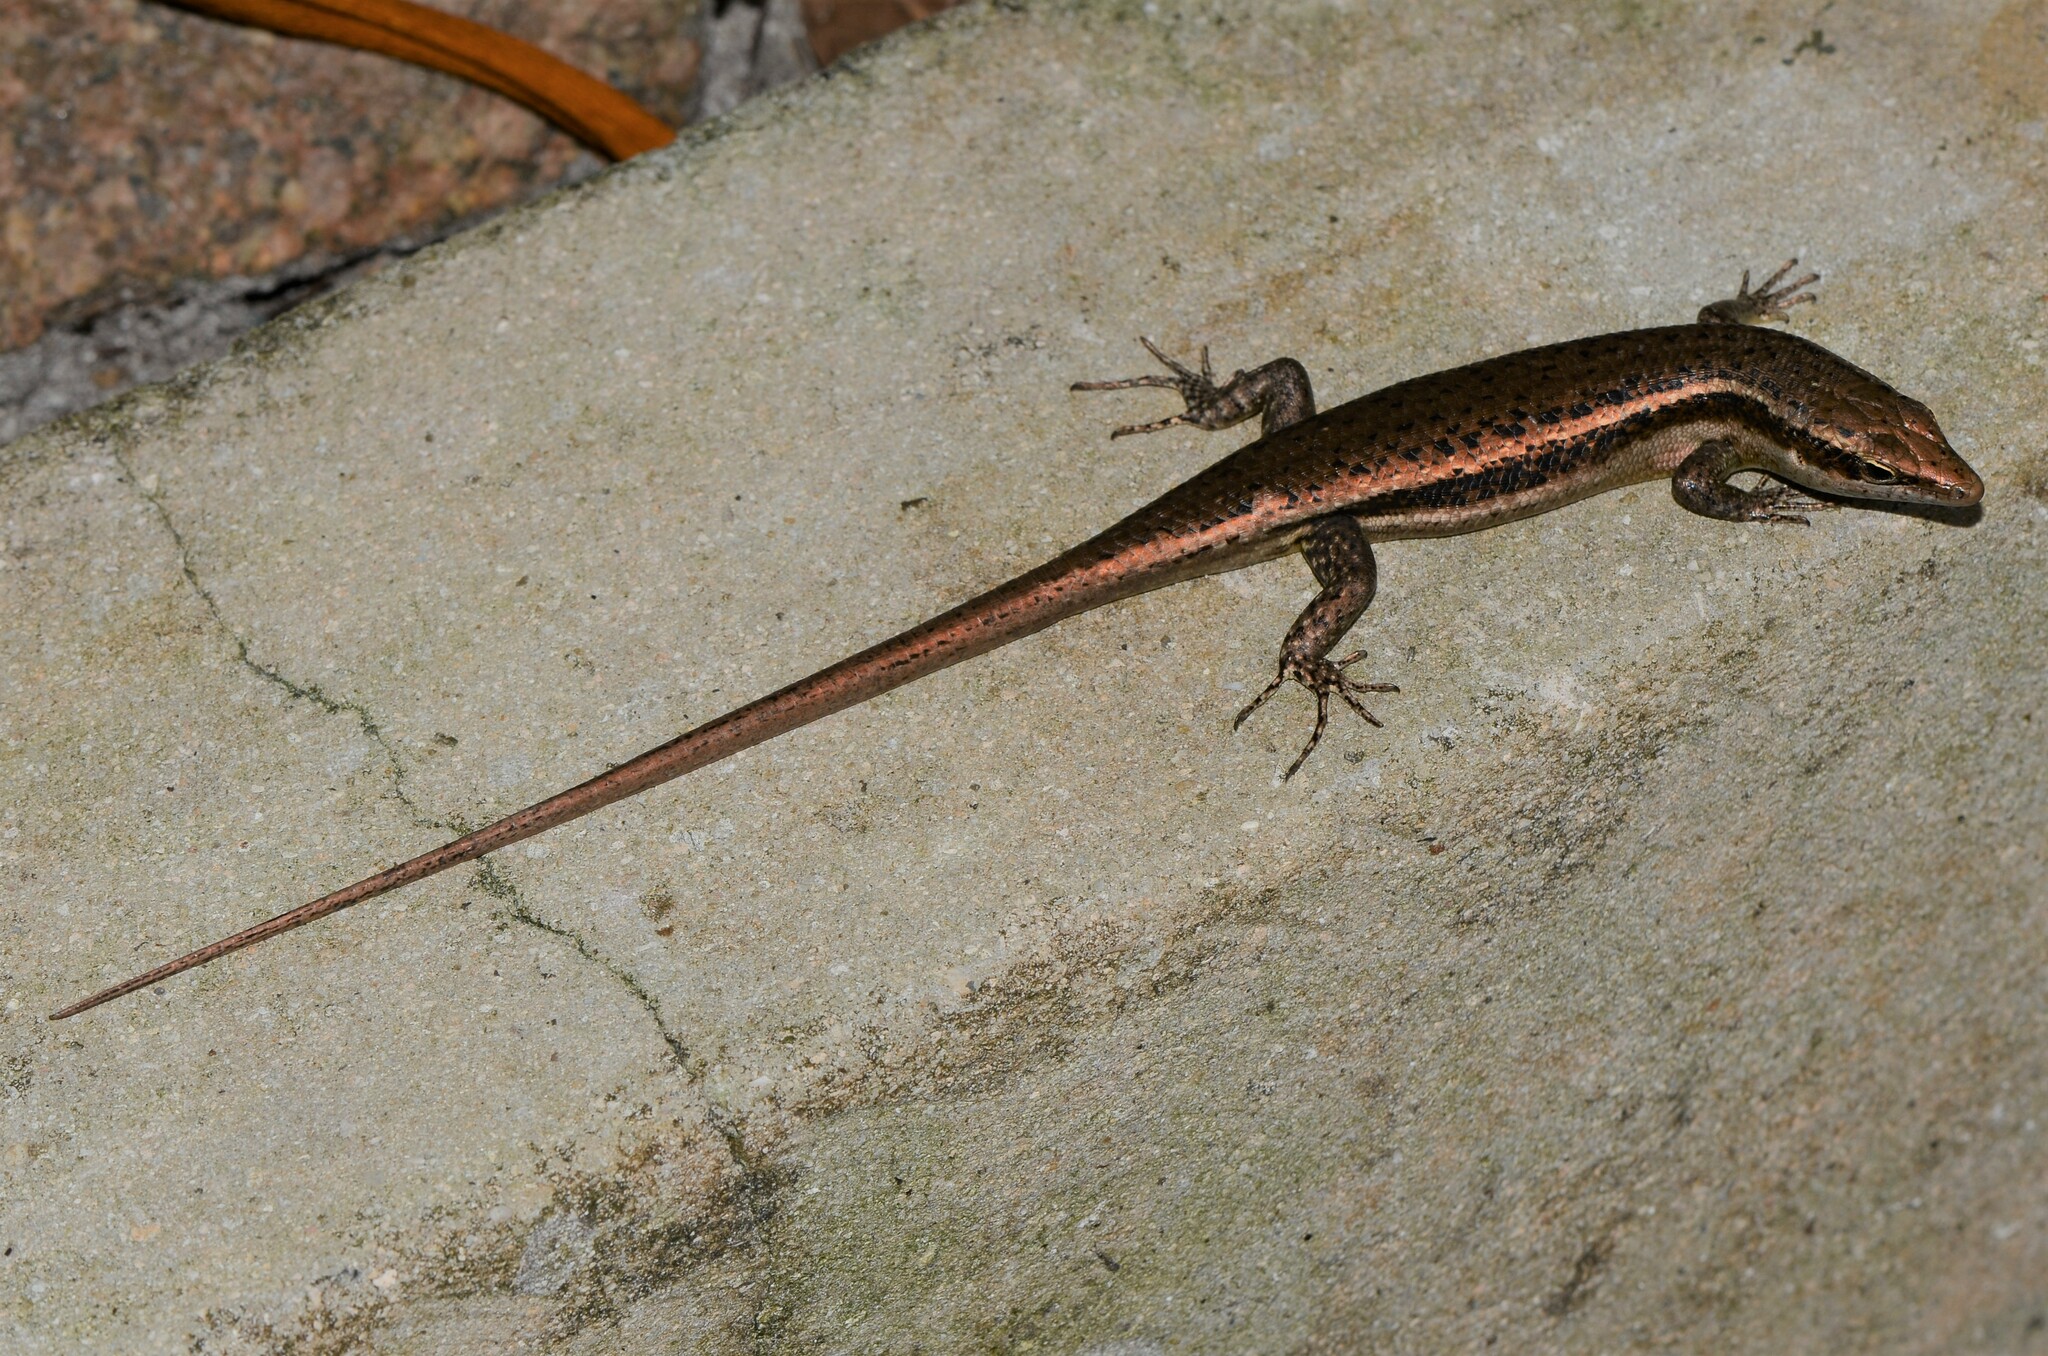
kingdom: Animalia
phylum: Chordata
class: Squamata
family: Scincidae
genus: Trachylepis
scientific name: Trachylepis sechellensis
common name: Seychelles skink
